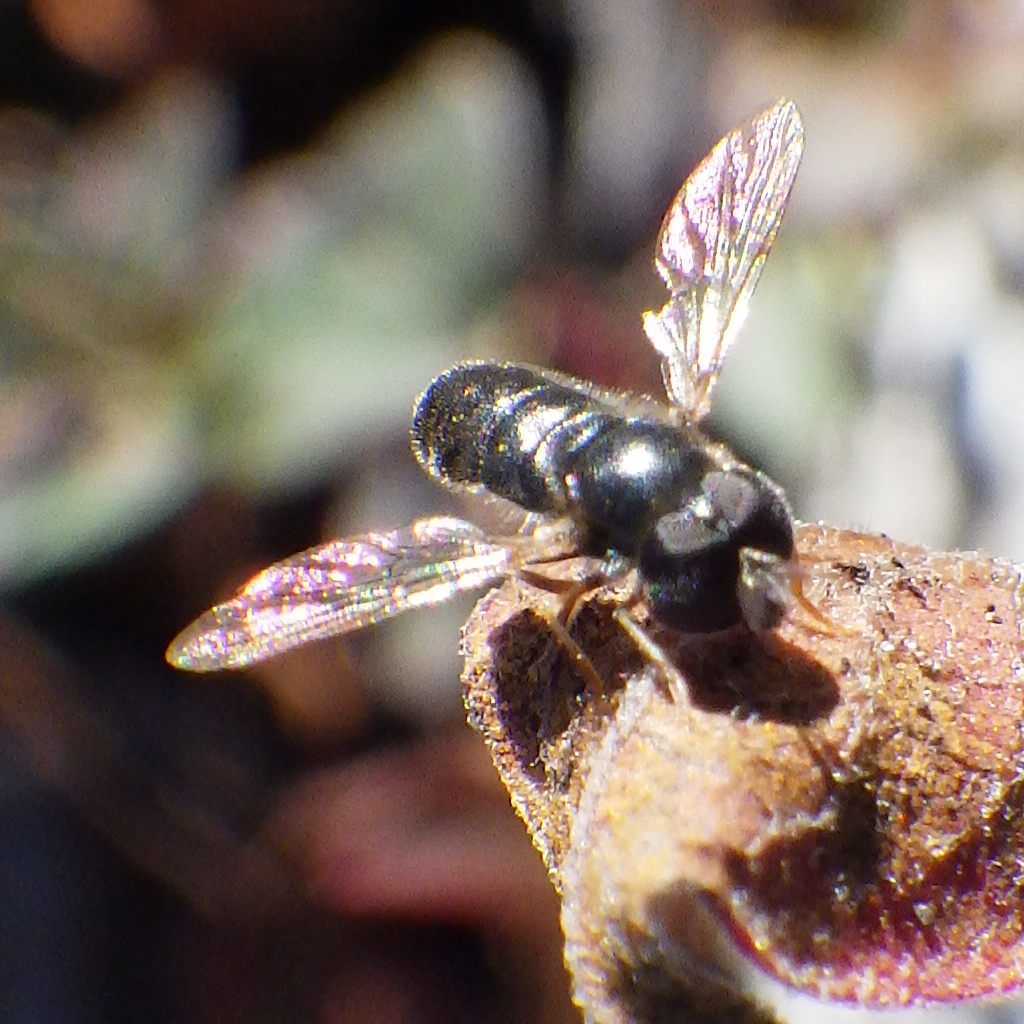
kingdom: Animalia
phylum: Arthropoda
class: Insecta
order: Diptera
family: Syrphidae
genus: Paragus
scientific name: Paragus haemorrhous
